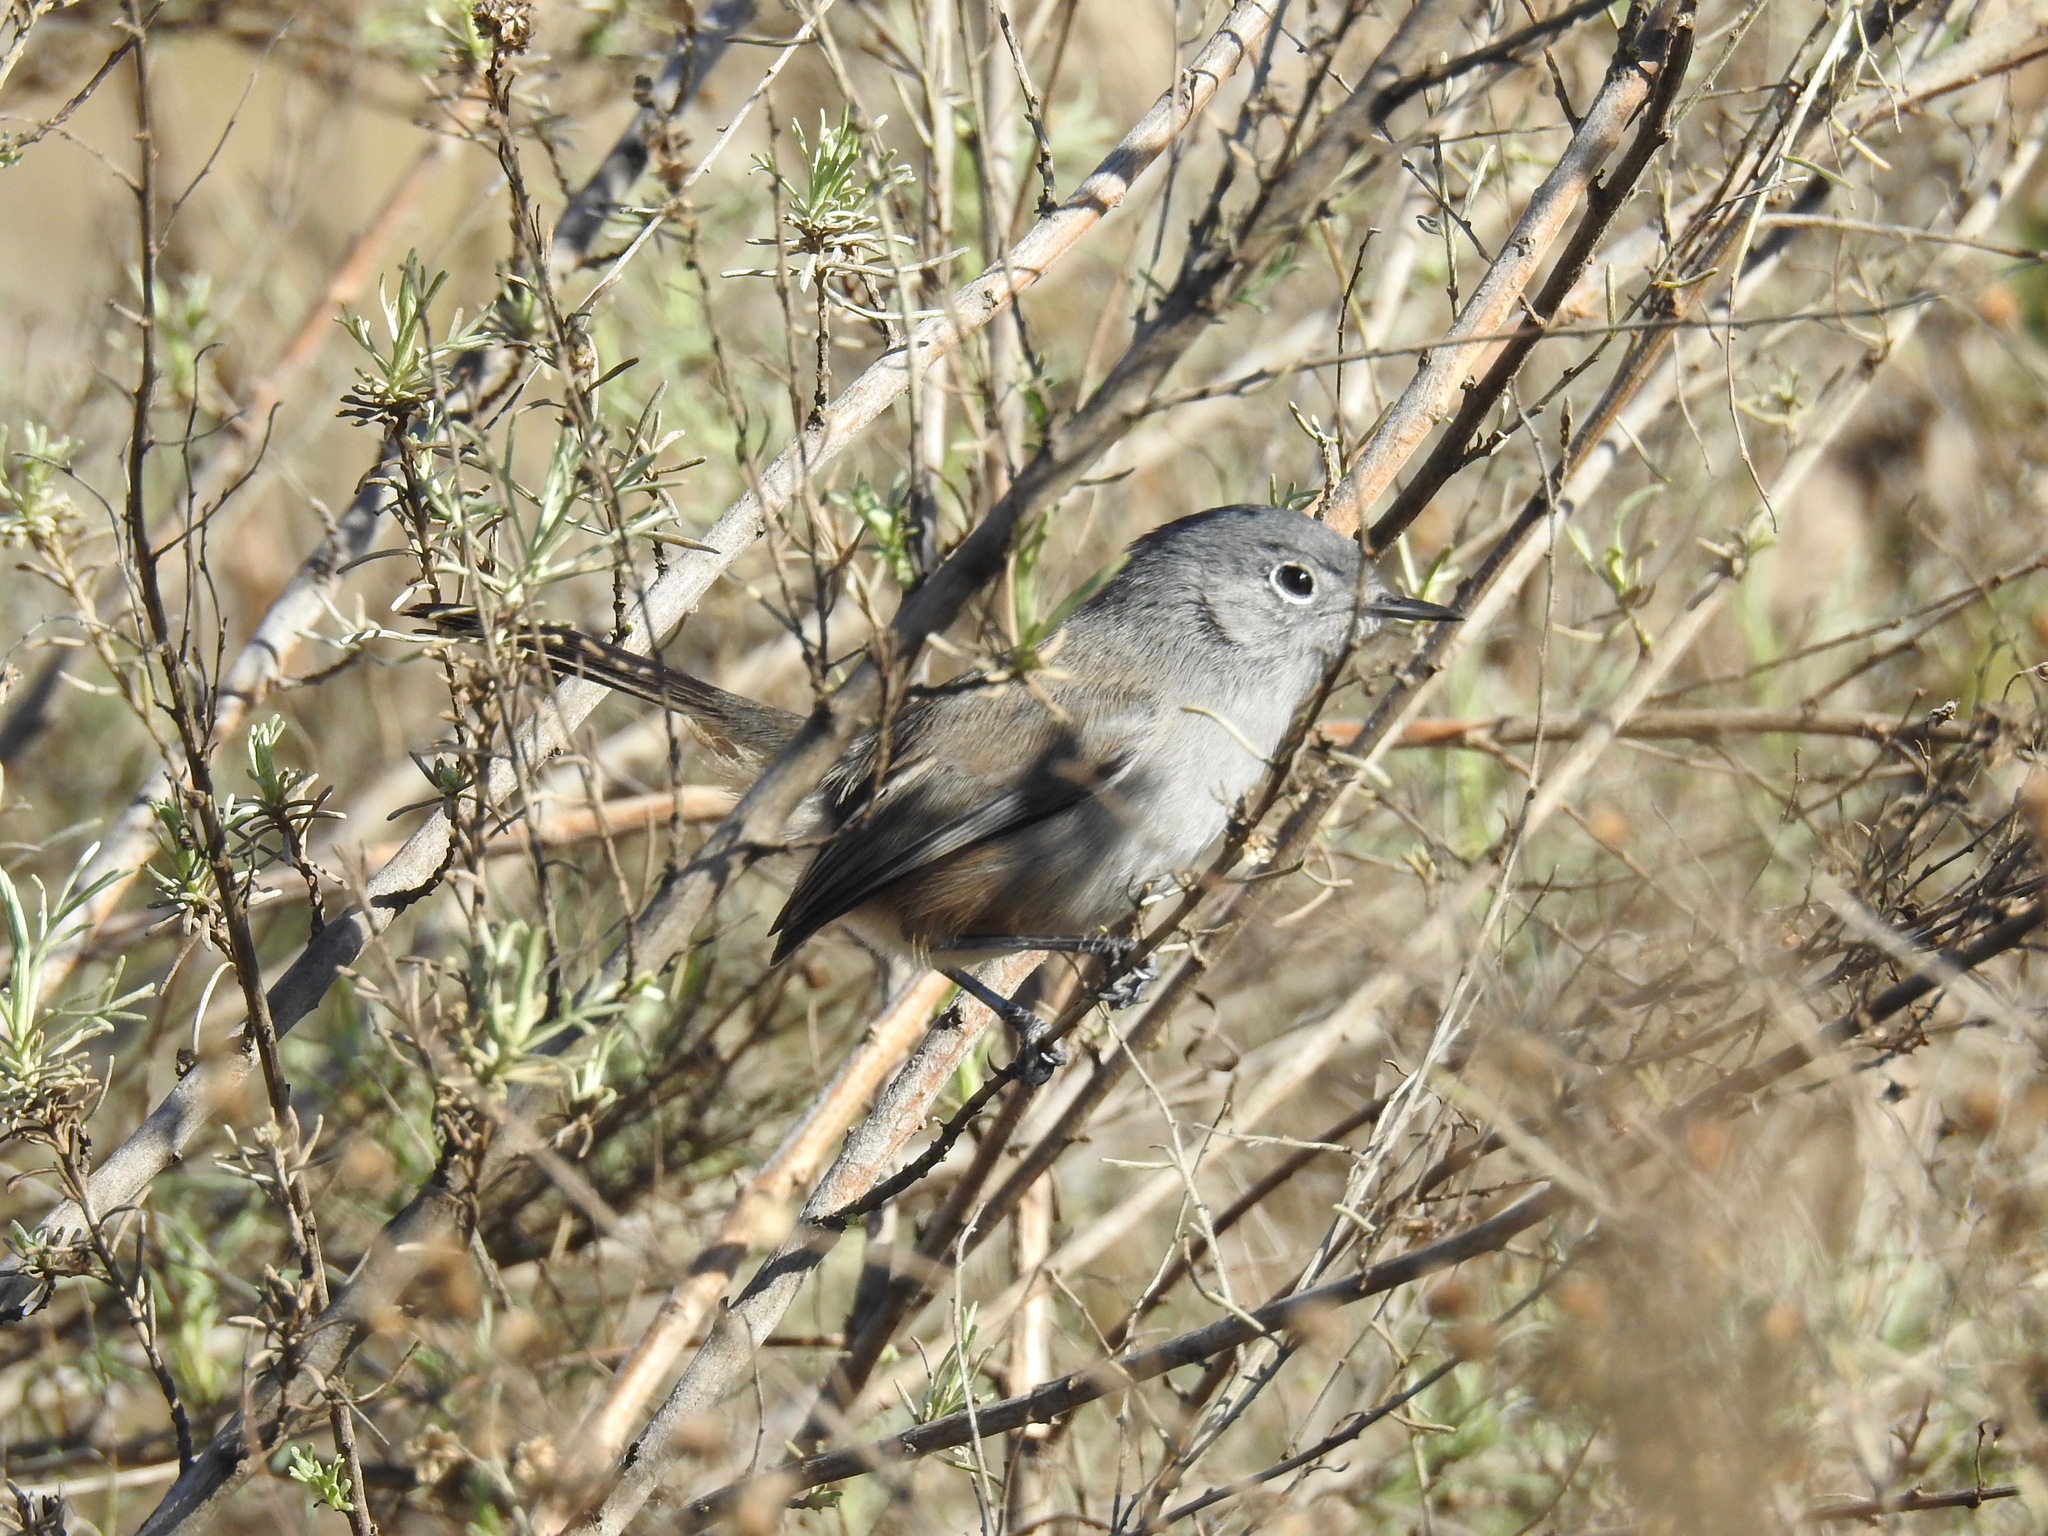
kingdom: Animalia
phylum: Chordata
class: Aves
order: Passeriformes
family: Polioptilidae
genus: Polioptila
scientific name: Polioptila californica
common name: California gnatcatcher
